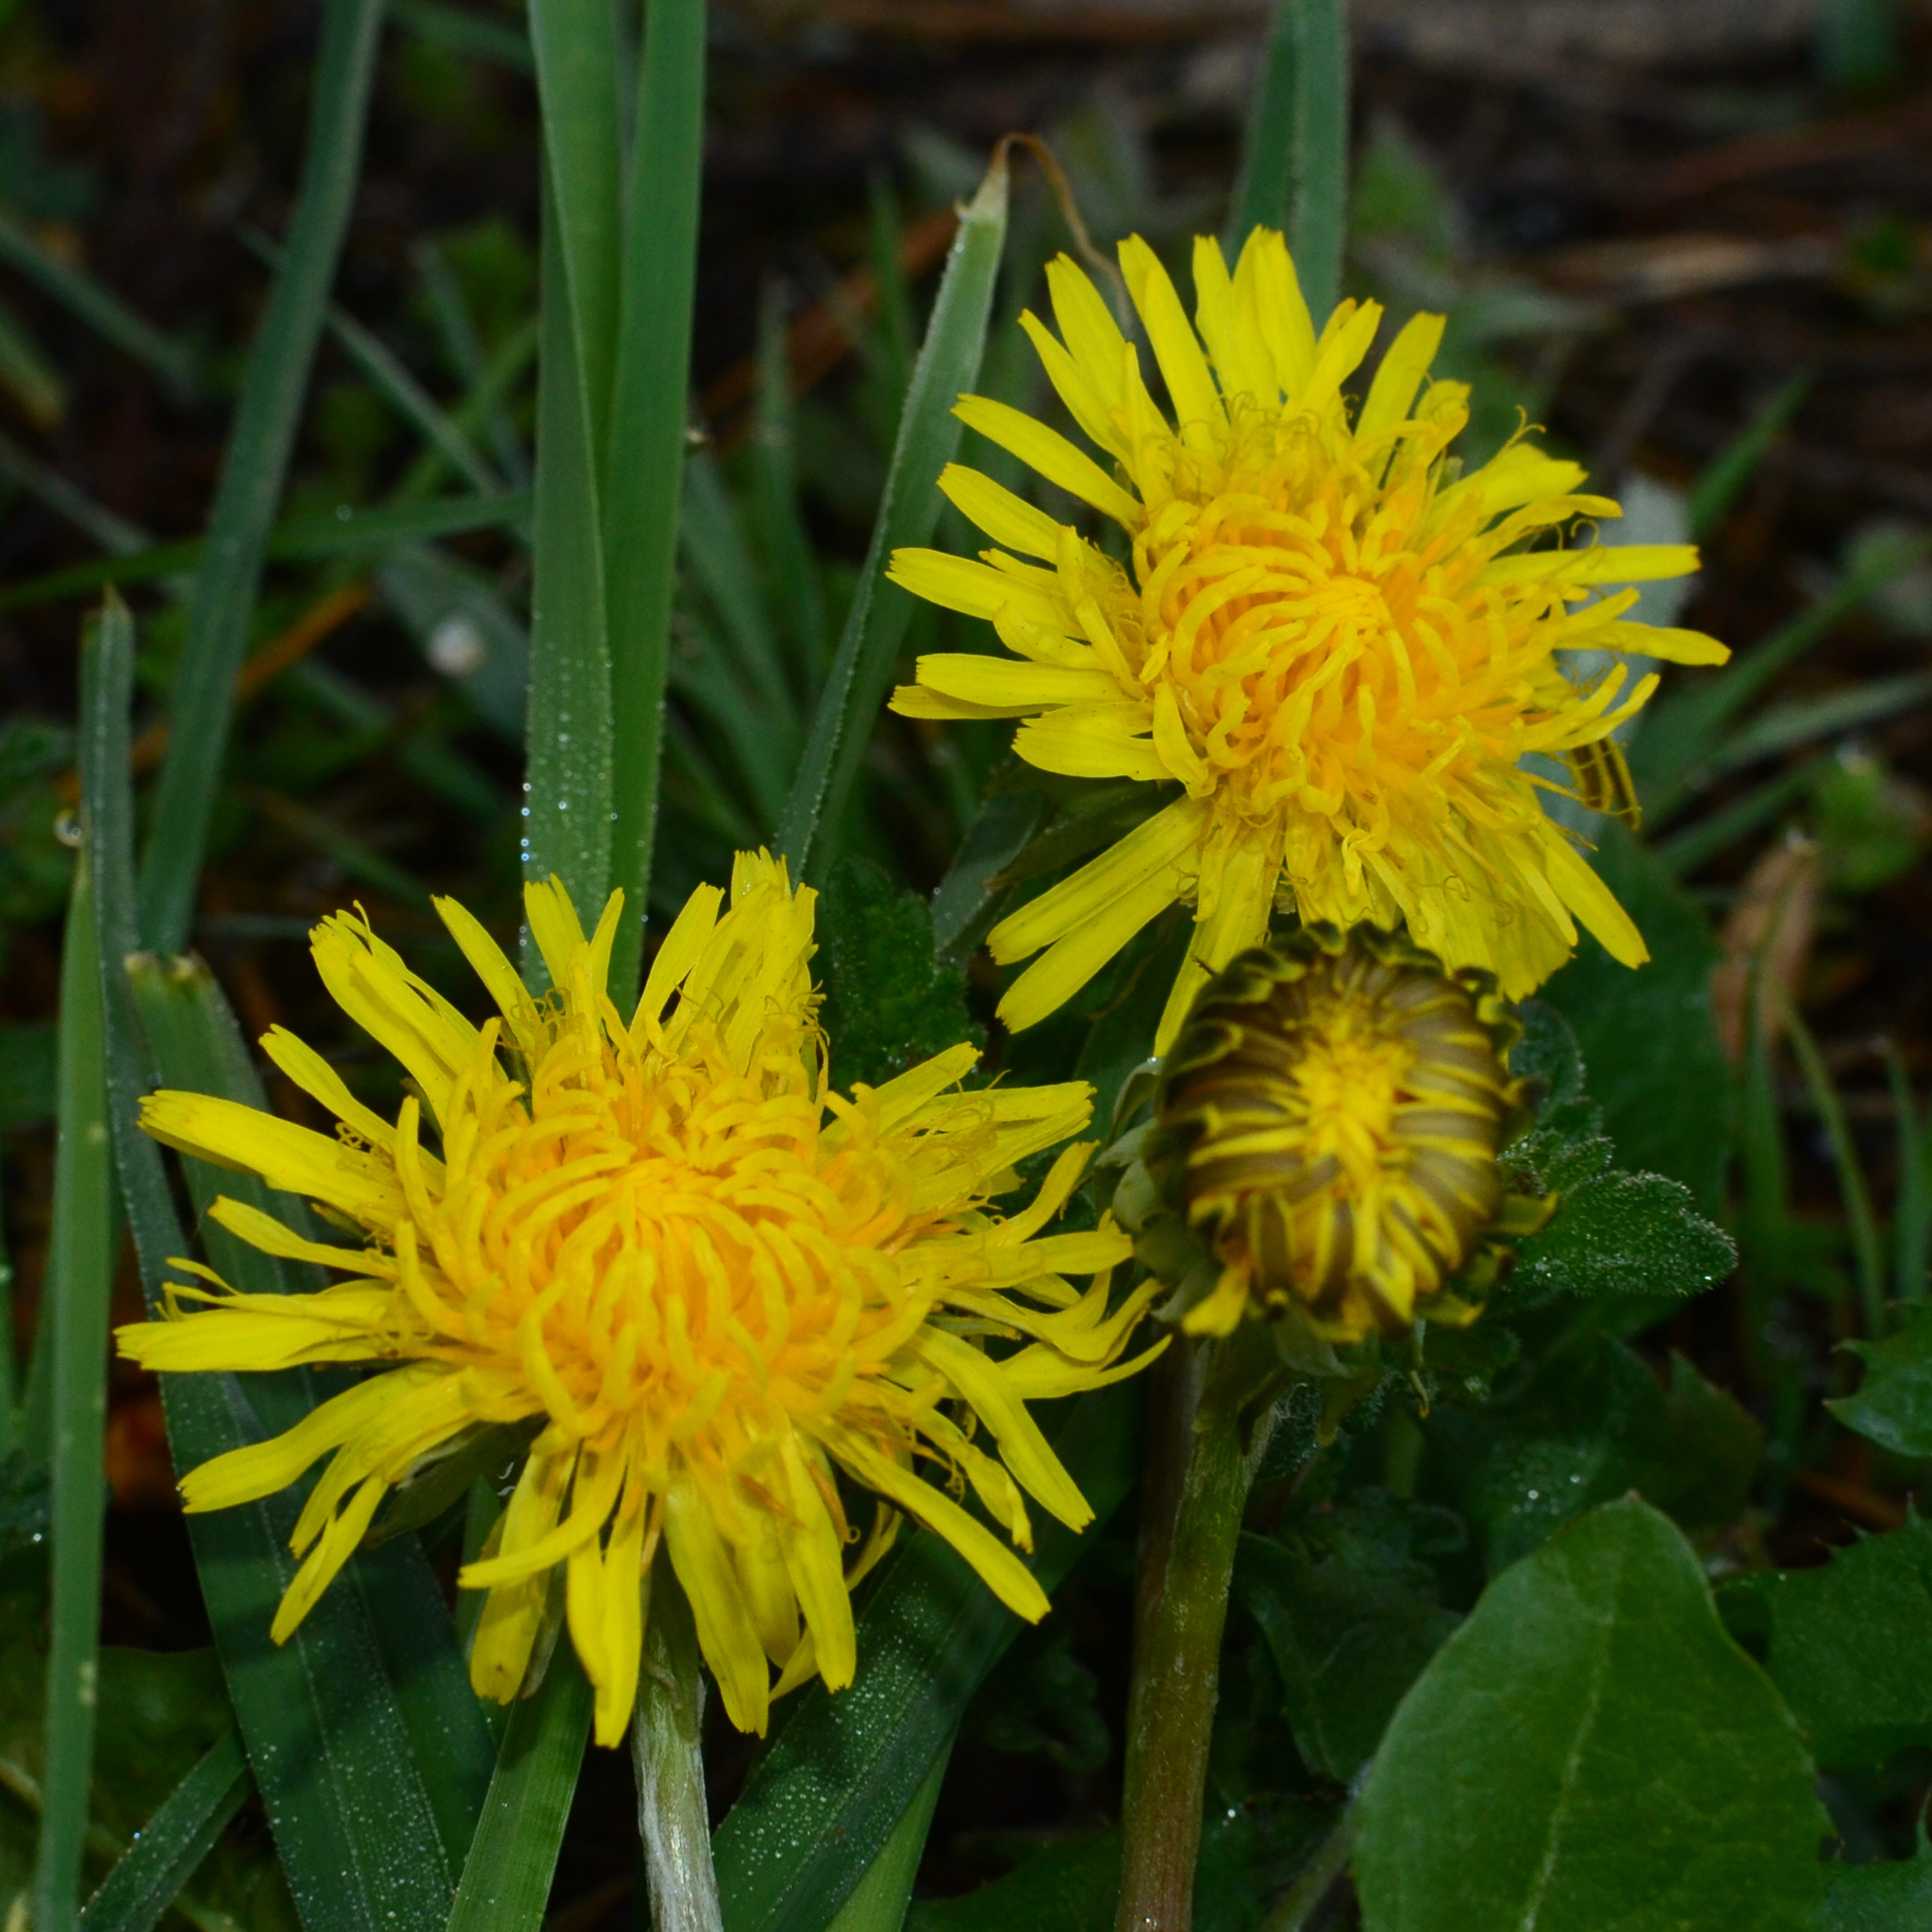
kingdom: Plantae
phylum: Tracheophyta
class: Magnoliopsida
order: Asterales
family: Asteraceae
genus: Taraxacum
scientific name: Taraxacum officinale
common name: Common dandelion
